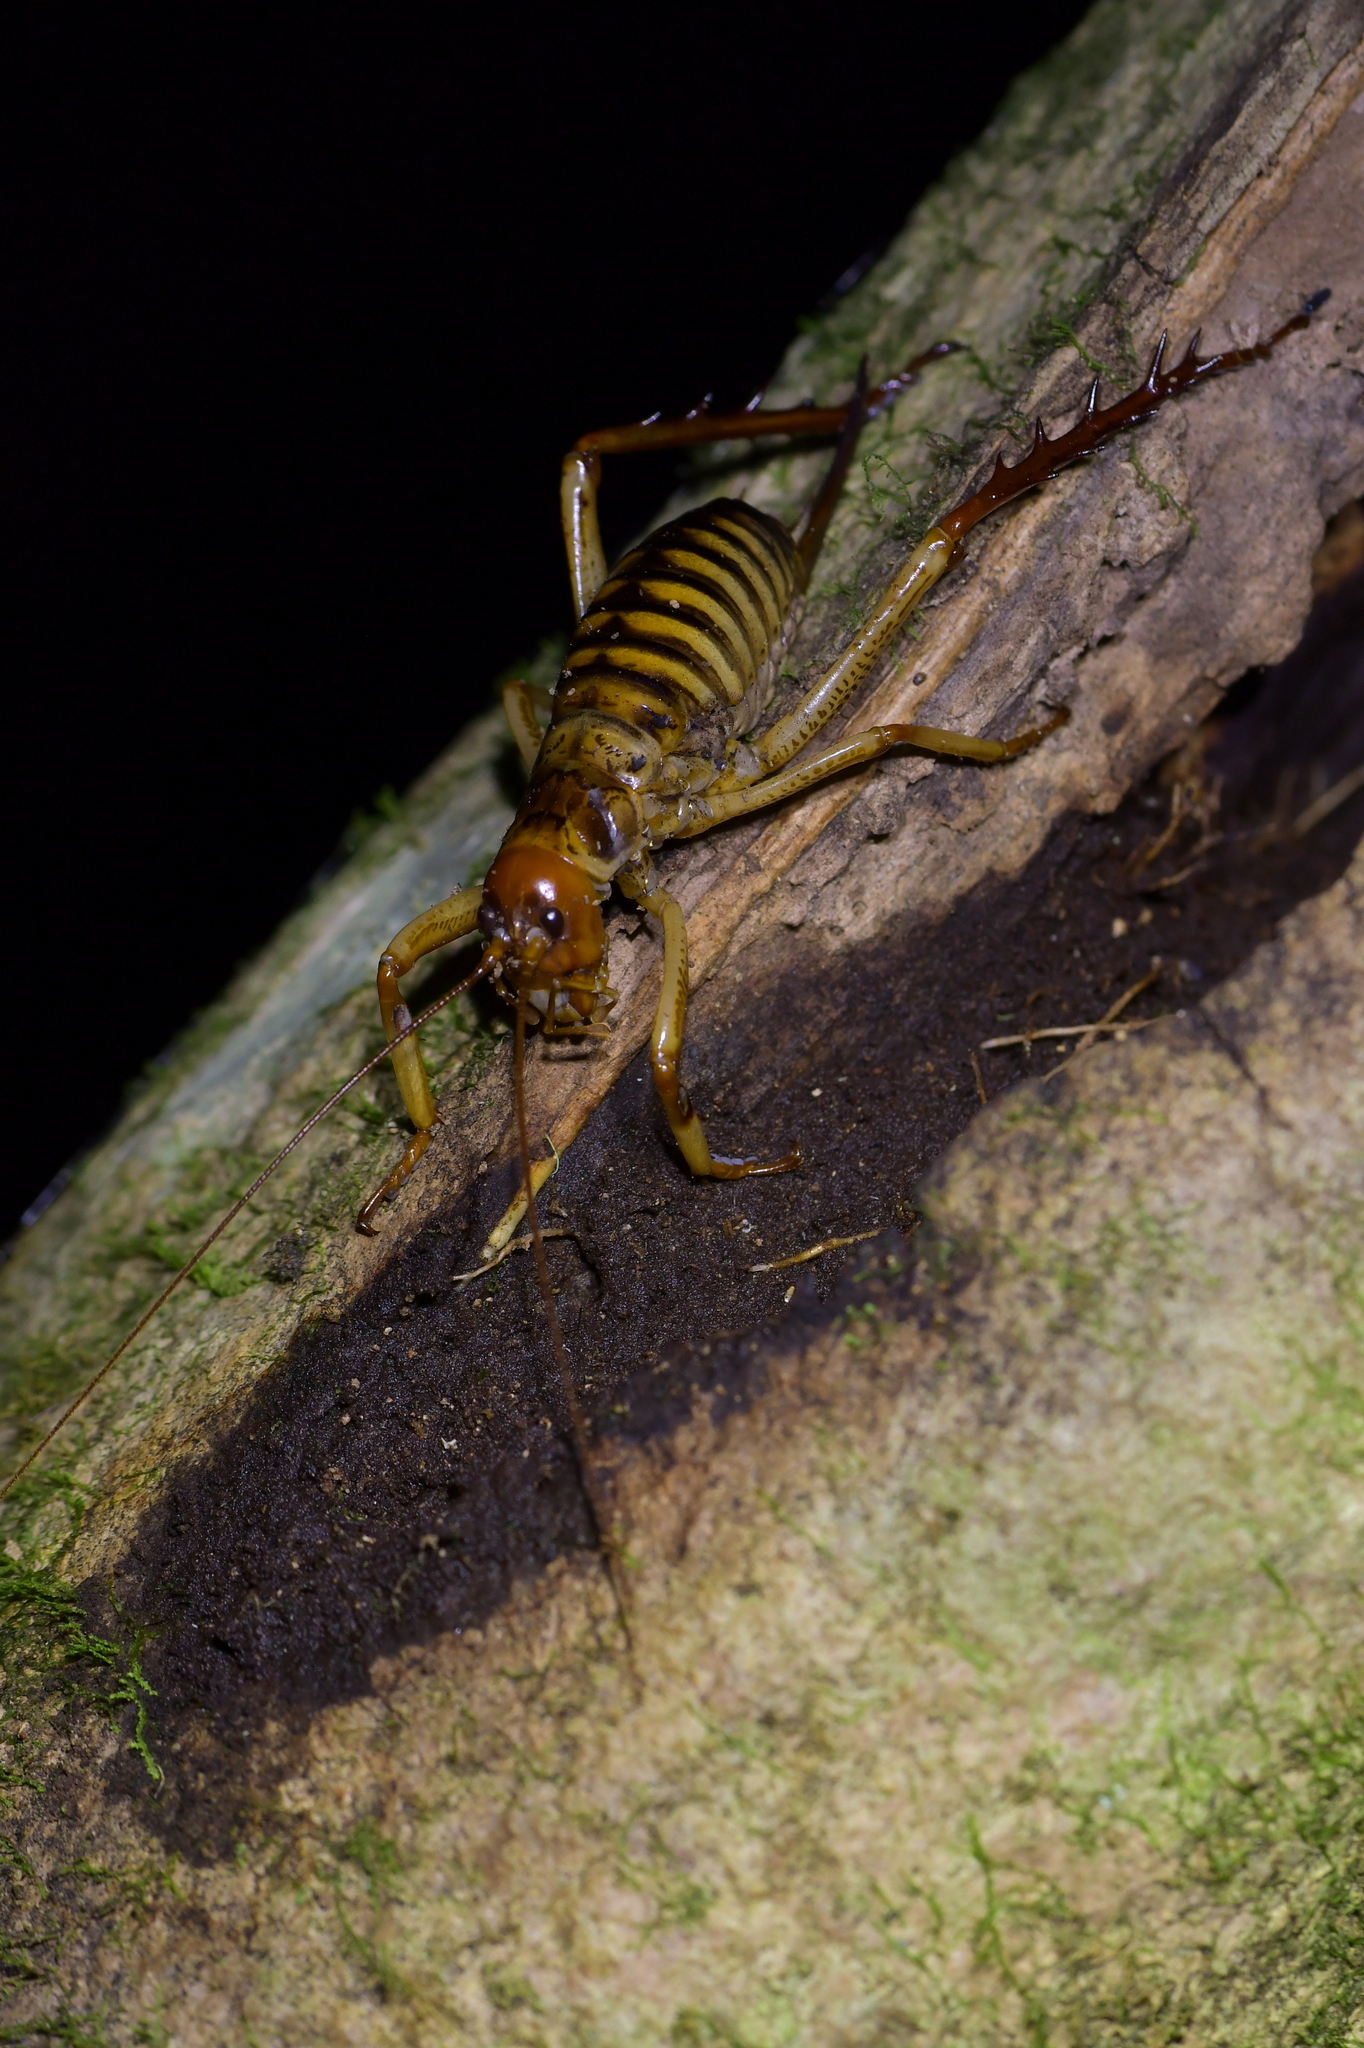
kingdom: Animalia
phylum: Arthropoda
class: Insecta
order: Orthoptera
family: Anostostomatidae
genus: Hemideina
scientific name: Hemideina crassidens
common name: Wellington tree weta
